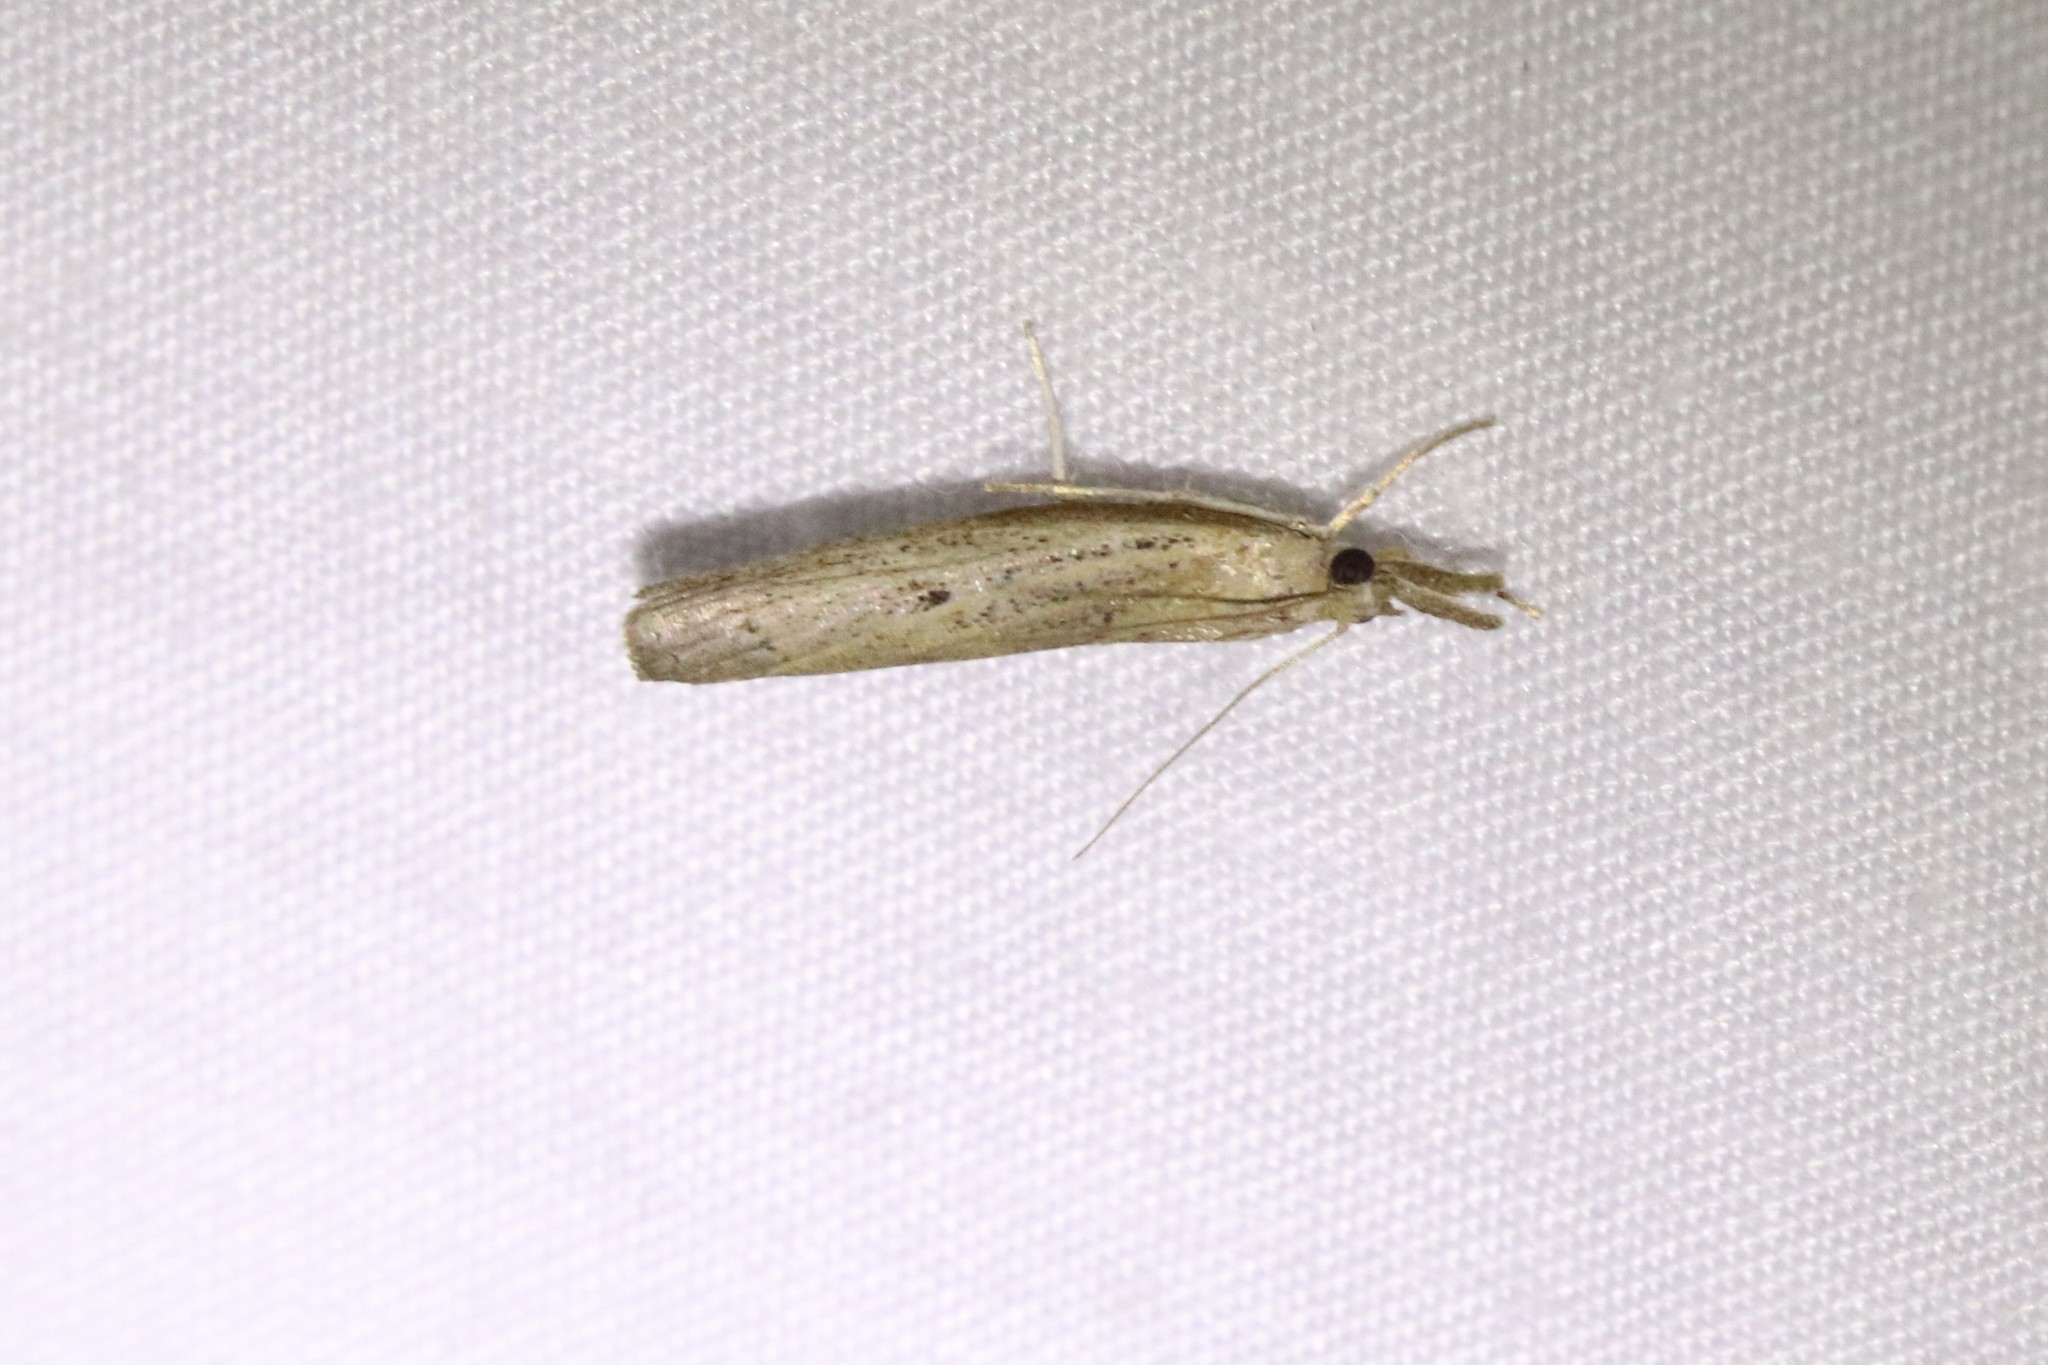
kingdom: Animalia
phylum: Arthropoda
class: Insecta
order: Lepidoptera
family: Crambidae
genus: Fissicrambus
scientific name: Fissicrambus mutabilis
